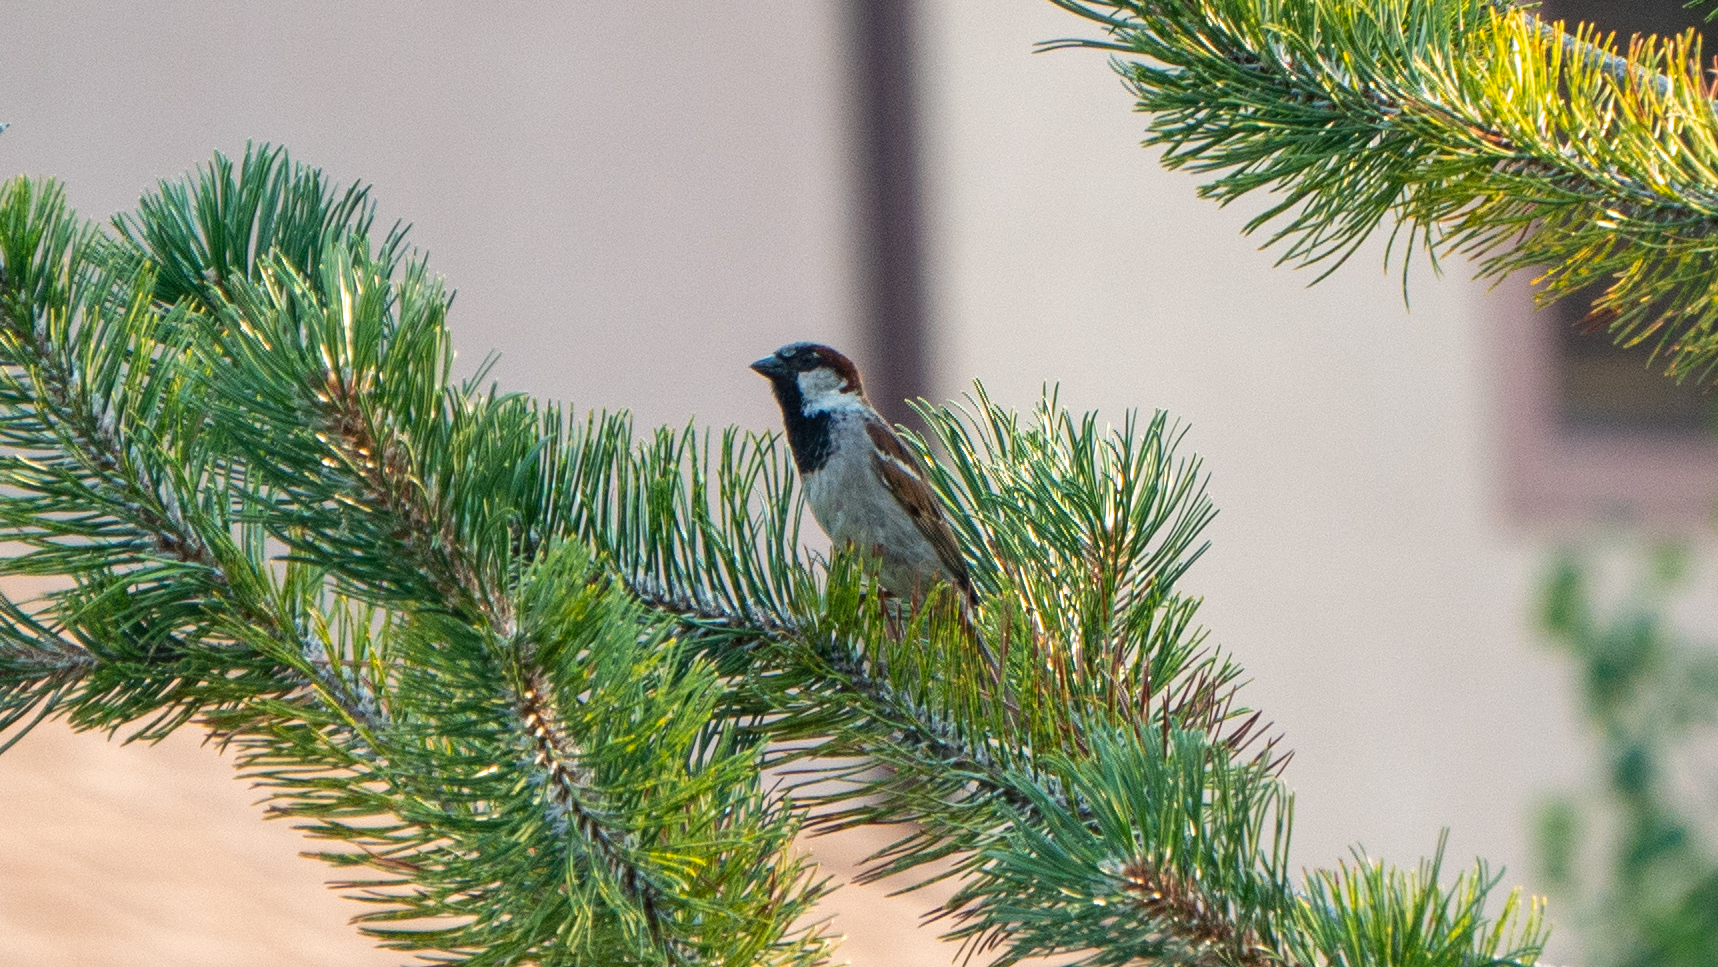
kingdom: Animalia
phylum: Chordata
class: Aves
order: Passeriformes
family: Passeridae
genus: Passer
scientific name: Passer domesticus
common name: House sparrow
